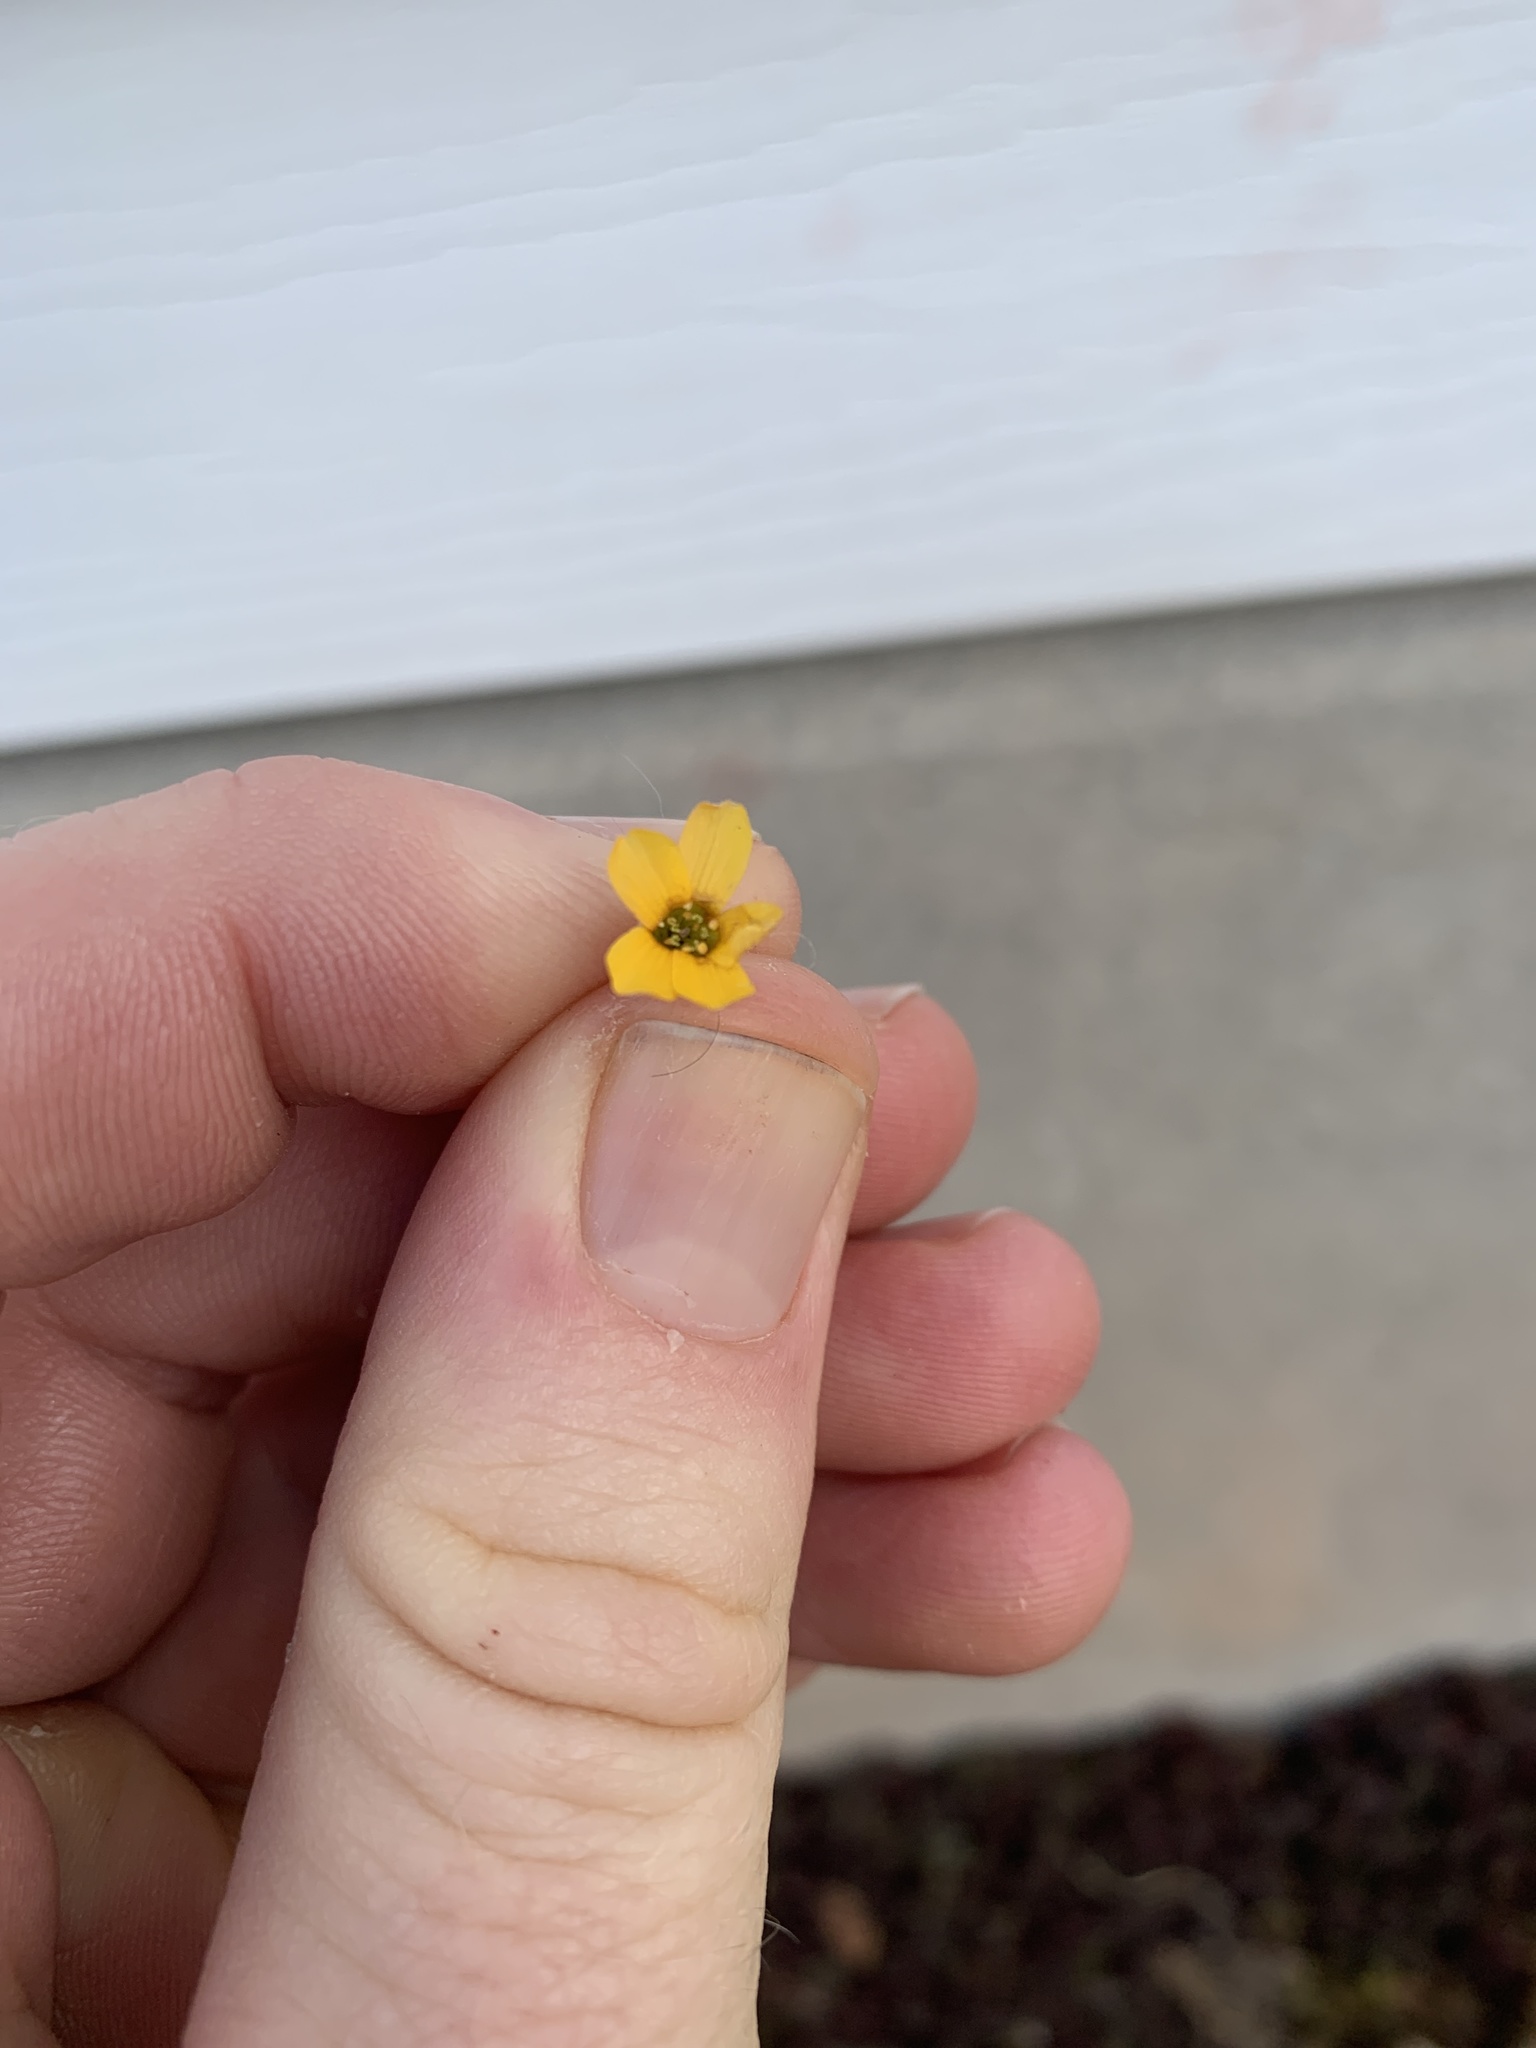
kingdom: Plantae
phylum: Tracheophyta
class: Magnoliopsida
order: Oxalidales
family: Oxalidaceae
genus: Oxalis
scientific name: Oxalis corniculata
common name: Procumbent yellow-sorrel
